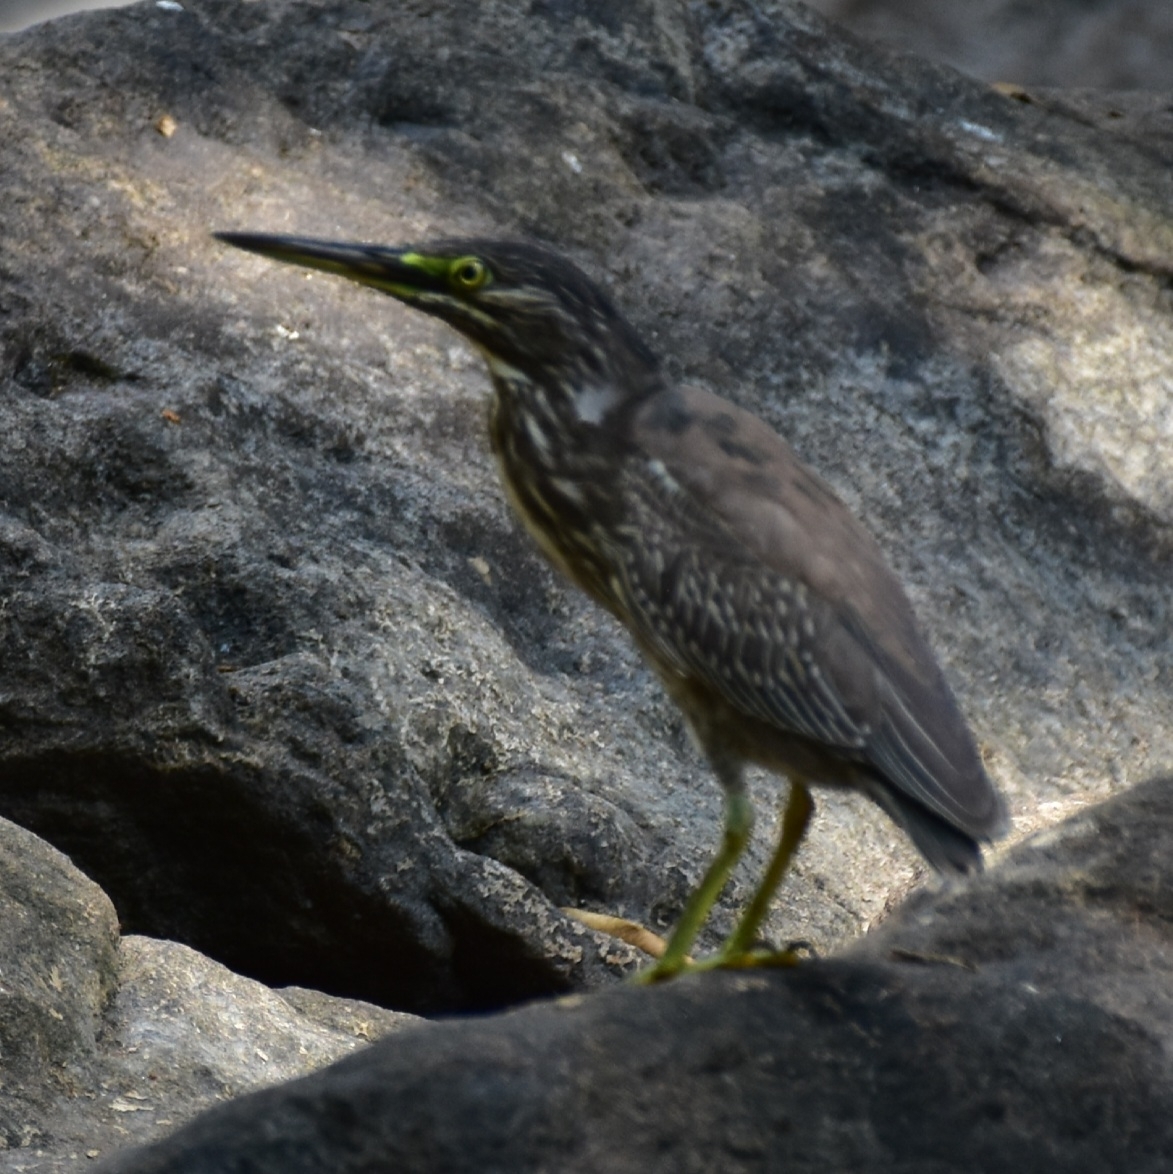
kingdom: Animalia
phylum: Chordata
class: Aves
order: Pelecaniformes
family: Ardeidae
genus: Butorides
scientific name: Butorides striata
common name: Striated heron
